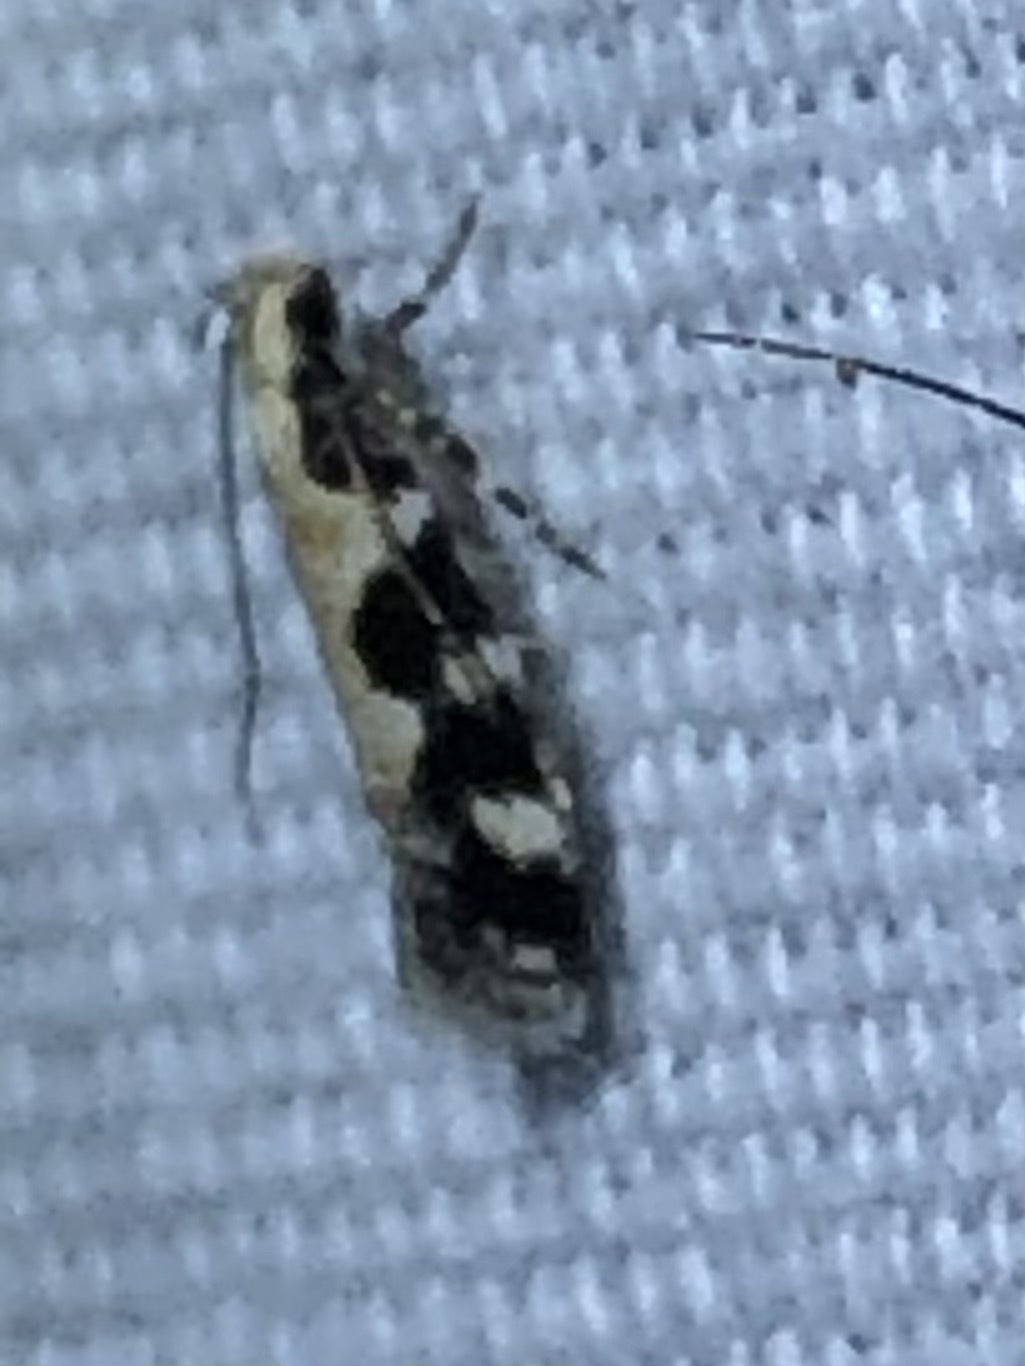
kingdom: Animalia
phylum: Arthropoda
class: Insecta
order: Lepidoptera
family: Gelechiidae
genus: Stegasta
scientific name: Stegasta bosqueella
